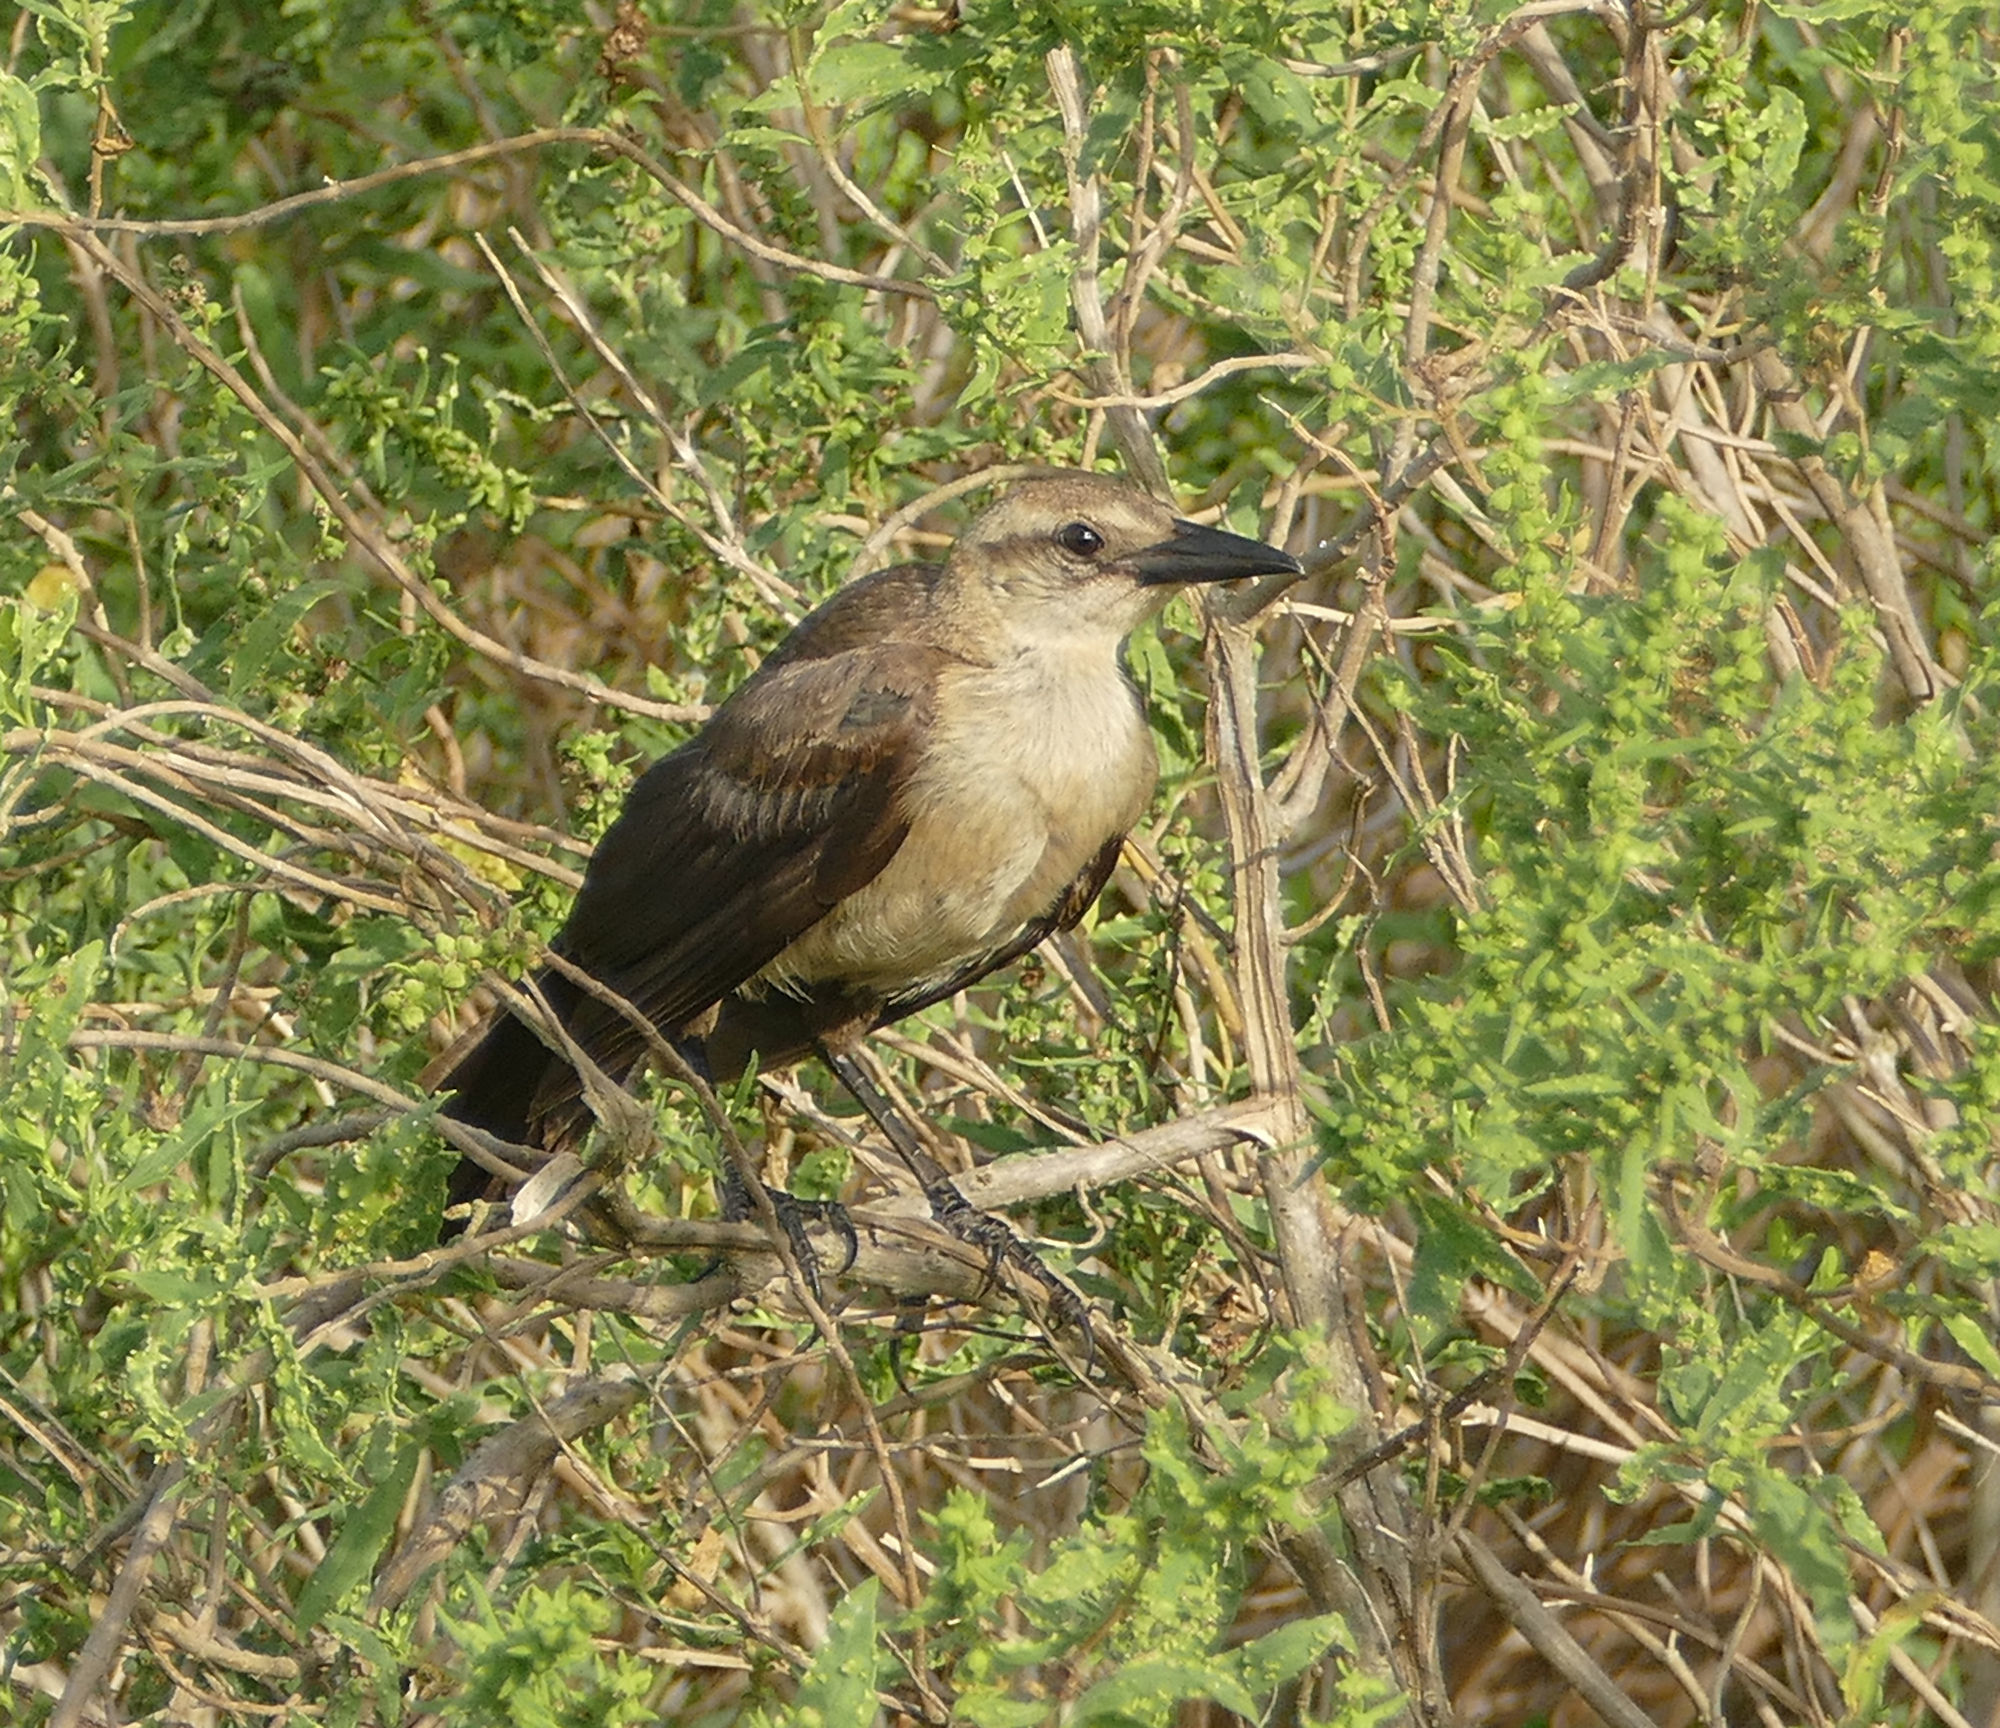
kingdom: Animalia
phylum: Chordata
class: Aves
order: Passeriformes
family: Icteridae
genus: Quiscalus
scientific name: Quiscalus major
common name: Boat-tailed grackle
